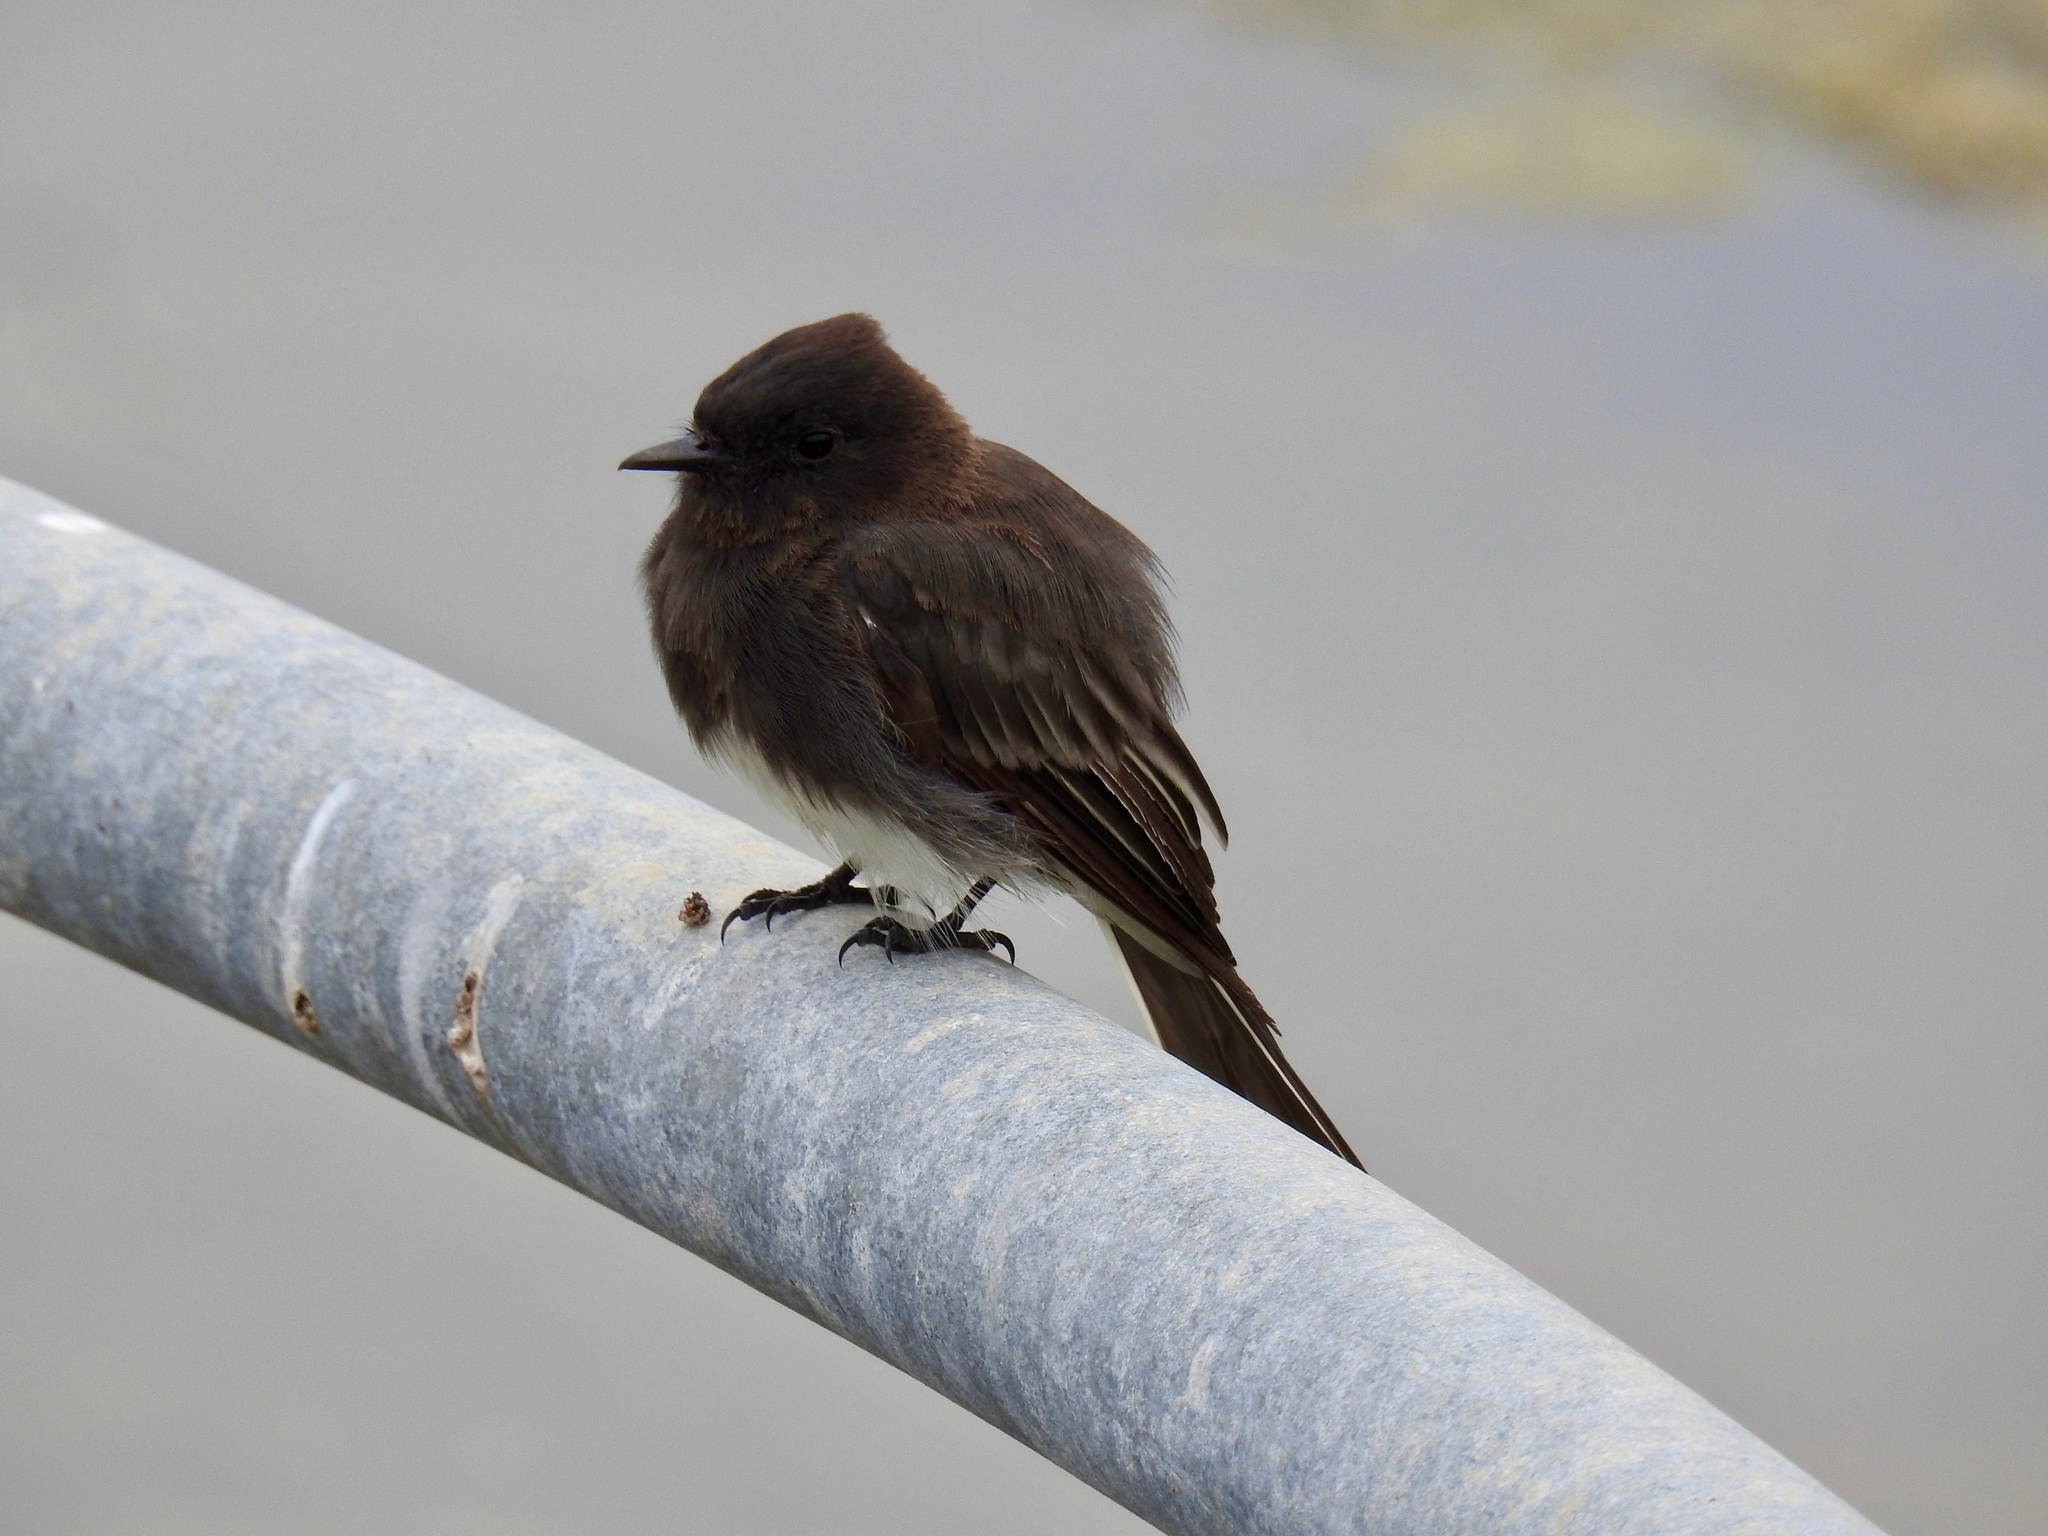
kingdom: Animalia
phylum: Chordata
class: Aves
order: Passeriformes
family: Tyrannidae
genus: Sayornis
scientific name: Sayornis nigricans
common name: Black phoebe
